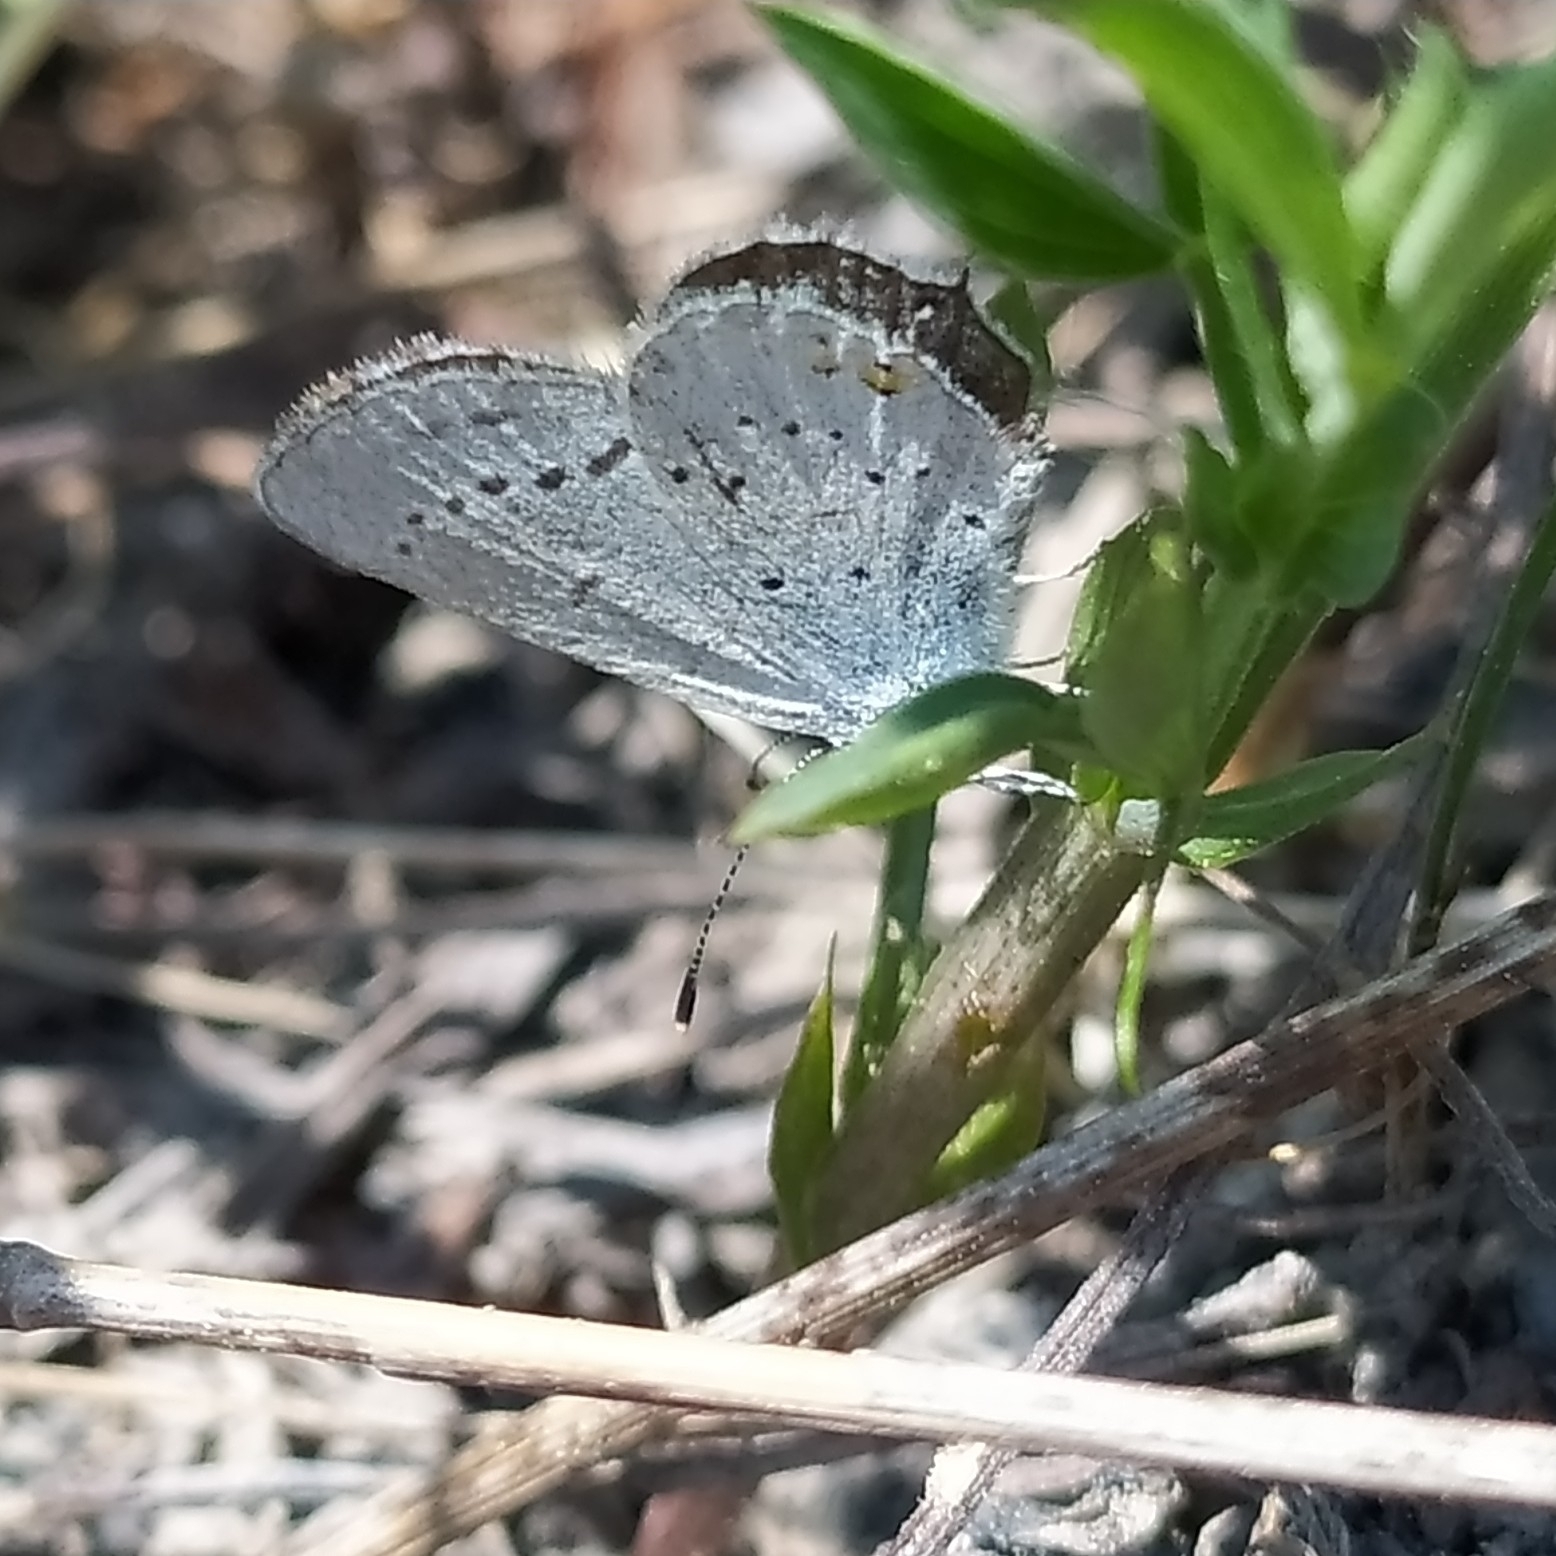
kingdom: Animalia
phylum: Arthropoda
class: Insecta
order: Lepidoptera
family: Lycaenidae
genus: Elkalyce
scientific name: Elkalyce argiades
